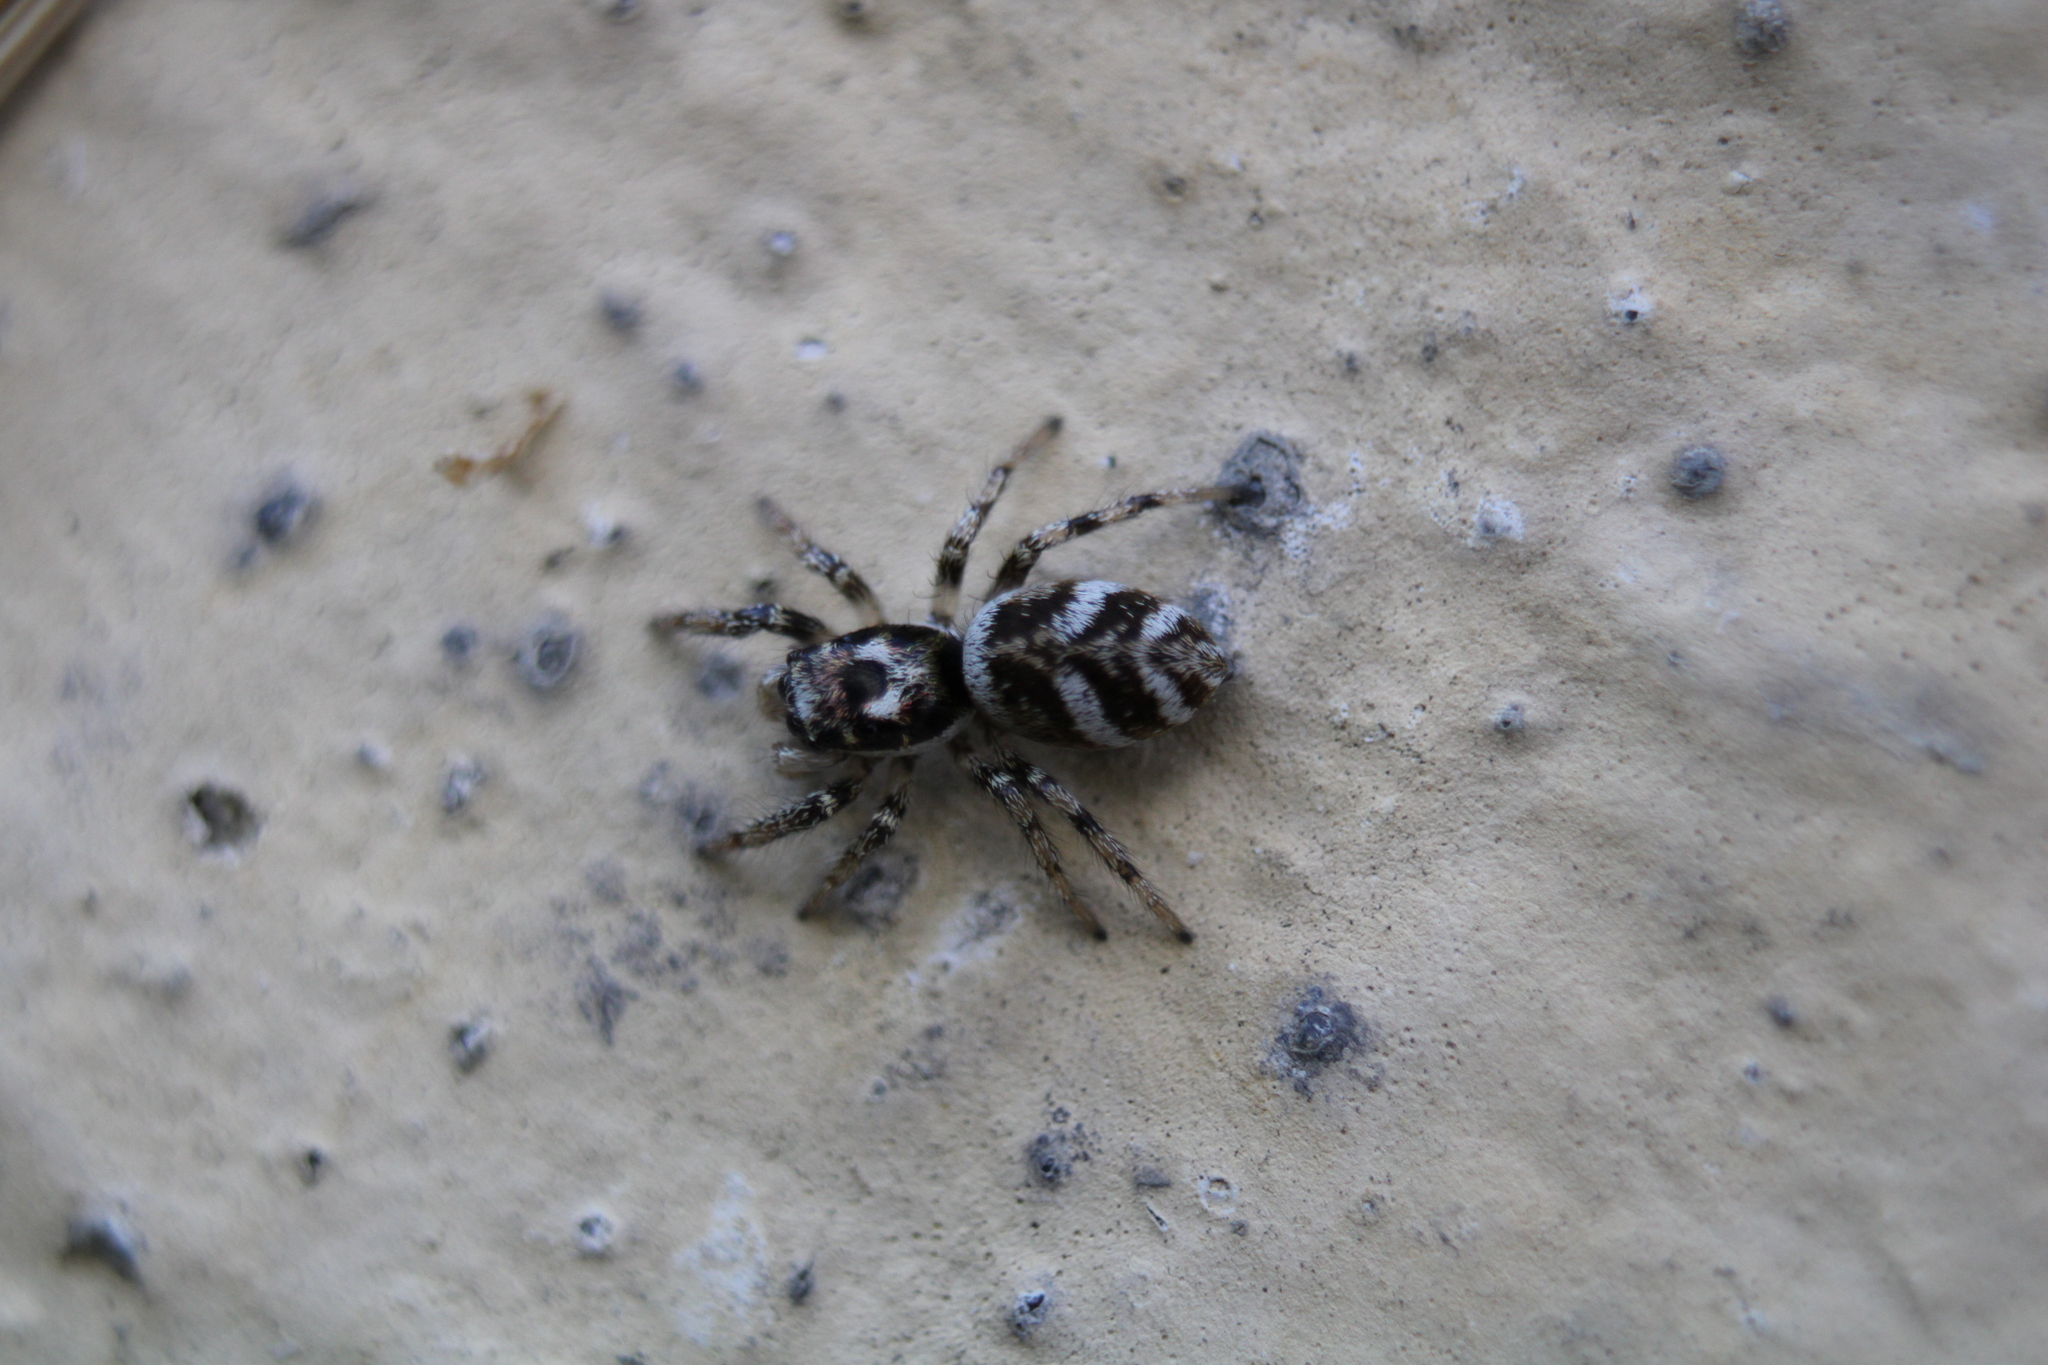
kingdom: Animalia
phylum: Arthropoda
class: Arachnida
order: Araneae
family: Salticidae
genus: Salticus
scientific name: Salticus scenicus
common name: Zebra jumper
